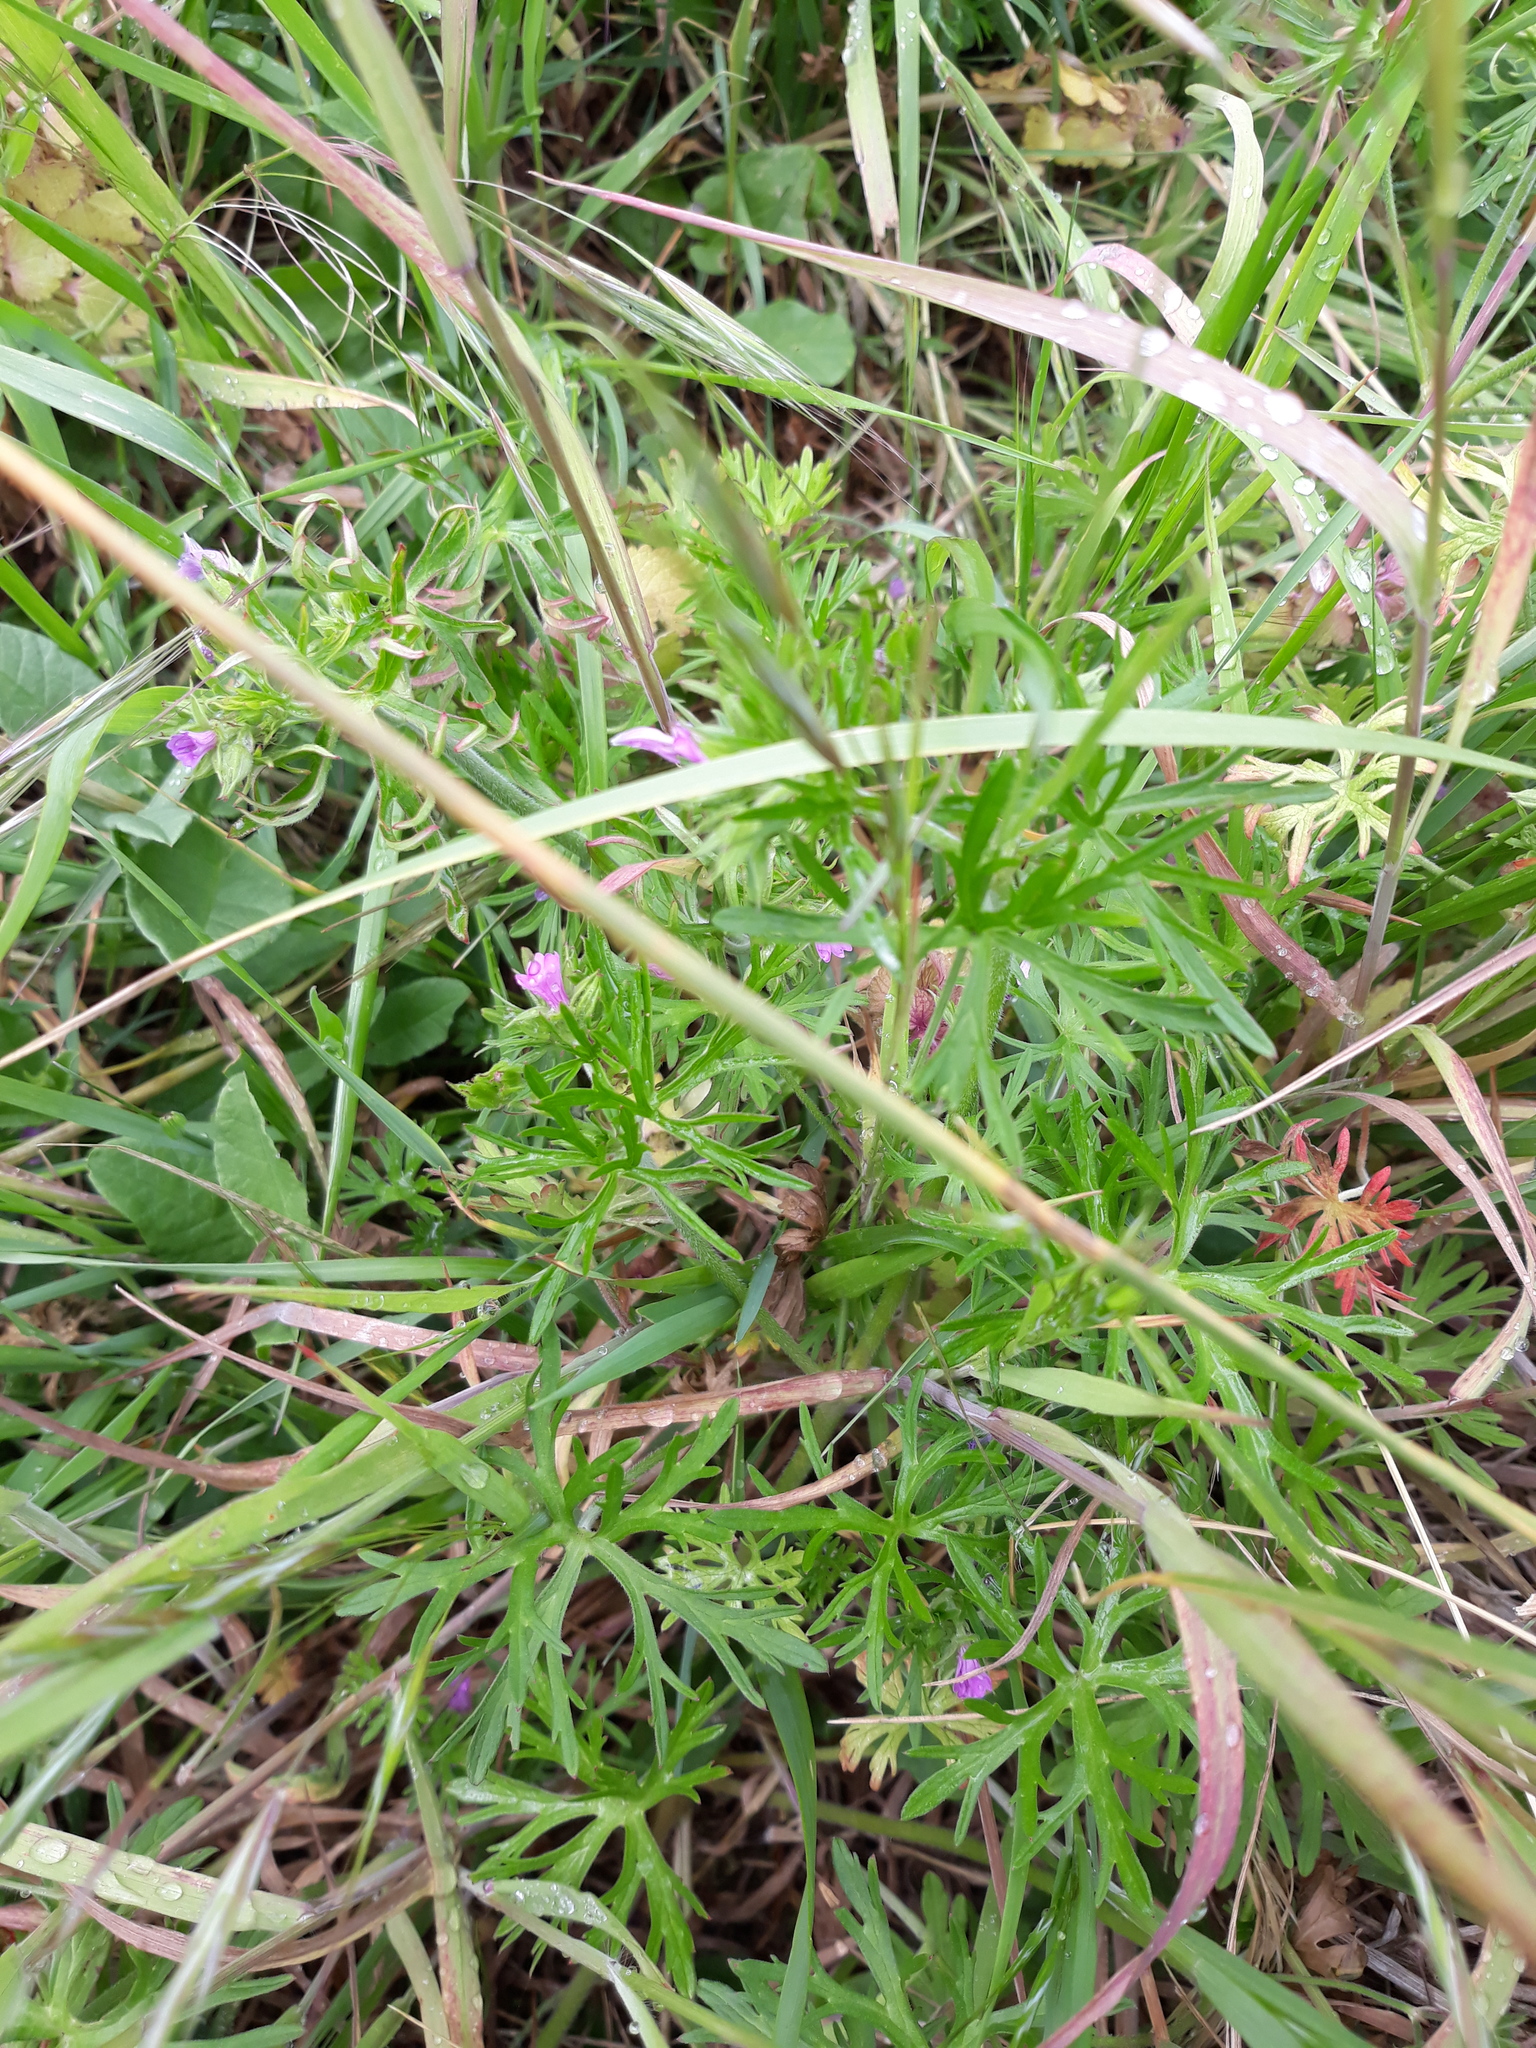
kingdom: Plantae
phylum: Tracheophyta
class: Magnoliopsida
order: Geraniales
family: Geraniaceae
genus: Geranium
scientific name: Geranium dissectum
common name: Cut-leaved crane's-bill
